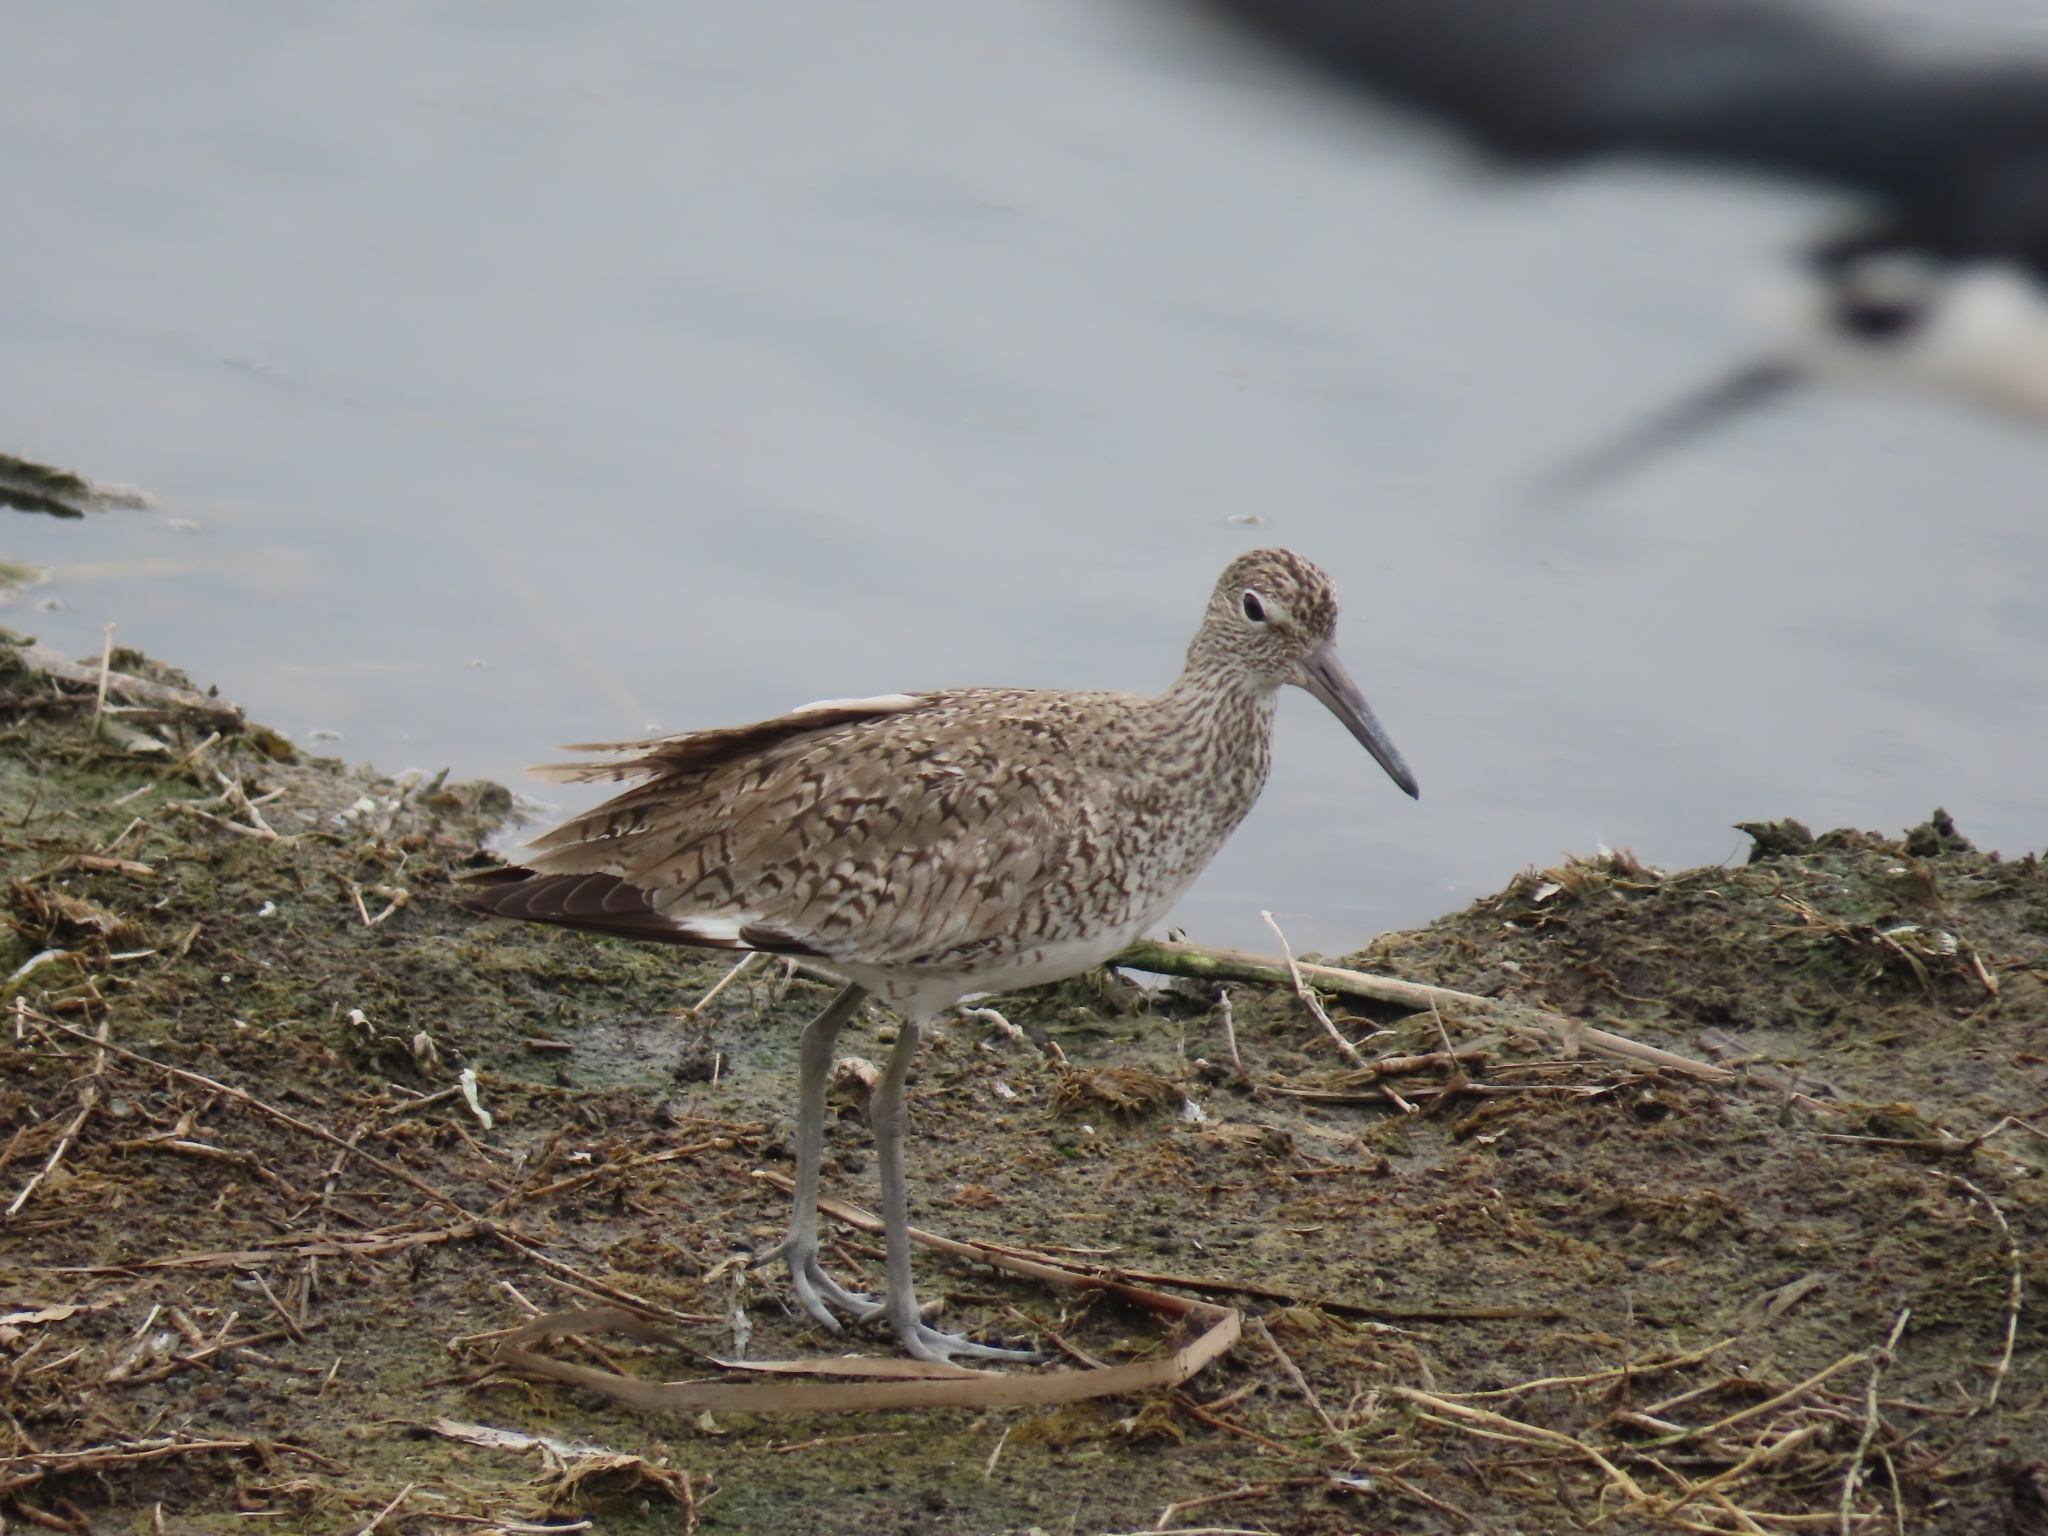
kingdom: Animalia
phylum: Chordata
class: Aves
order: Charadriiformes
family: Scolopacidae
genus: Tringa
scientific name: Tringa semipalmata
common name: Willet
